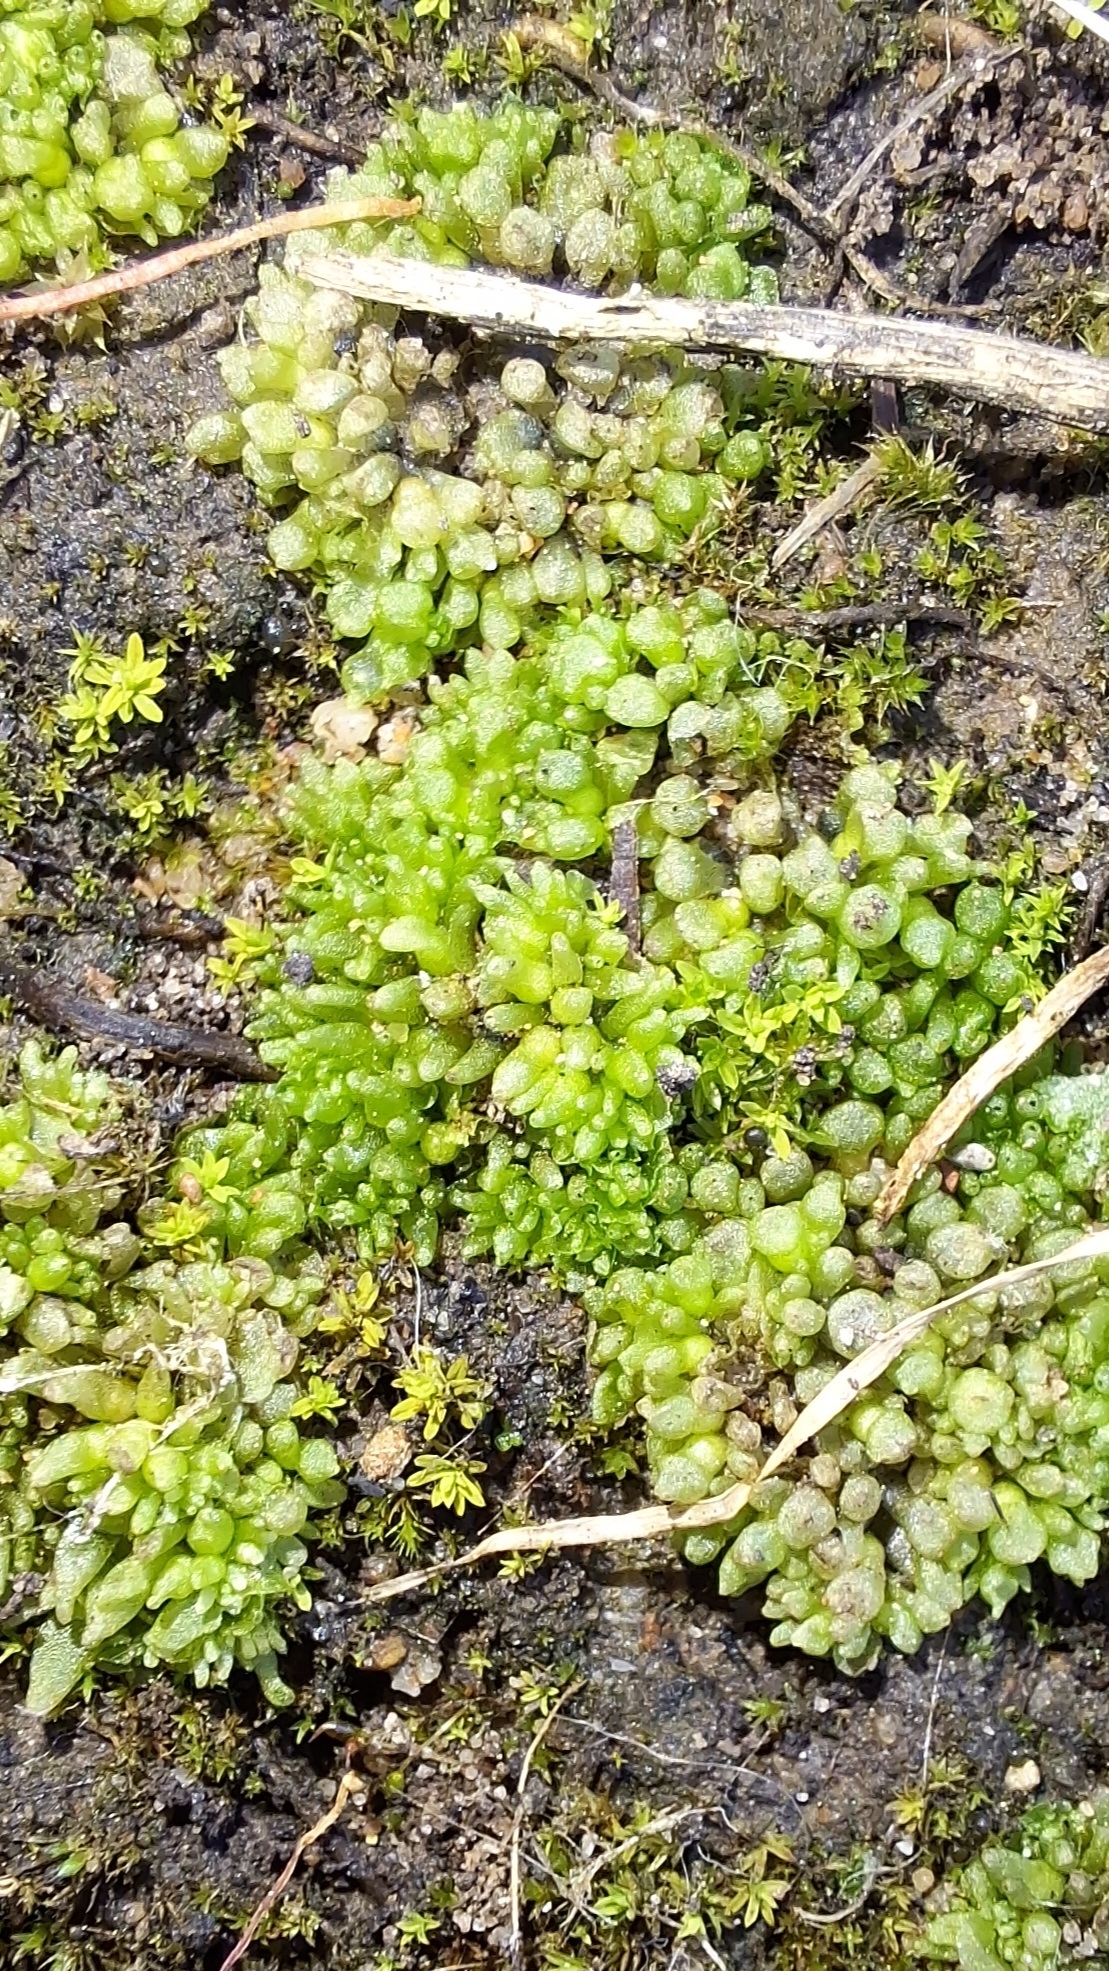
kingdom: Plantae
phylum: Marchantiophyta
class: Marchantiopsida
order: Sphaerocarpales
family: Sphaerocarpaceae
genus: Sphaerocarpos
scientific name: Sphaerocarpos texanus
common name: Texas balloonwort
